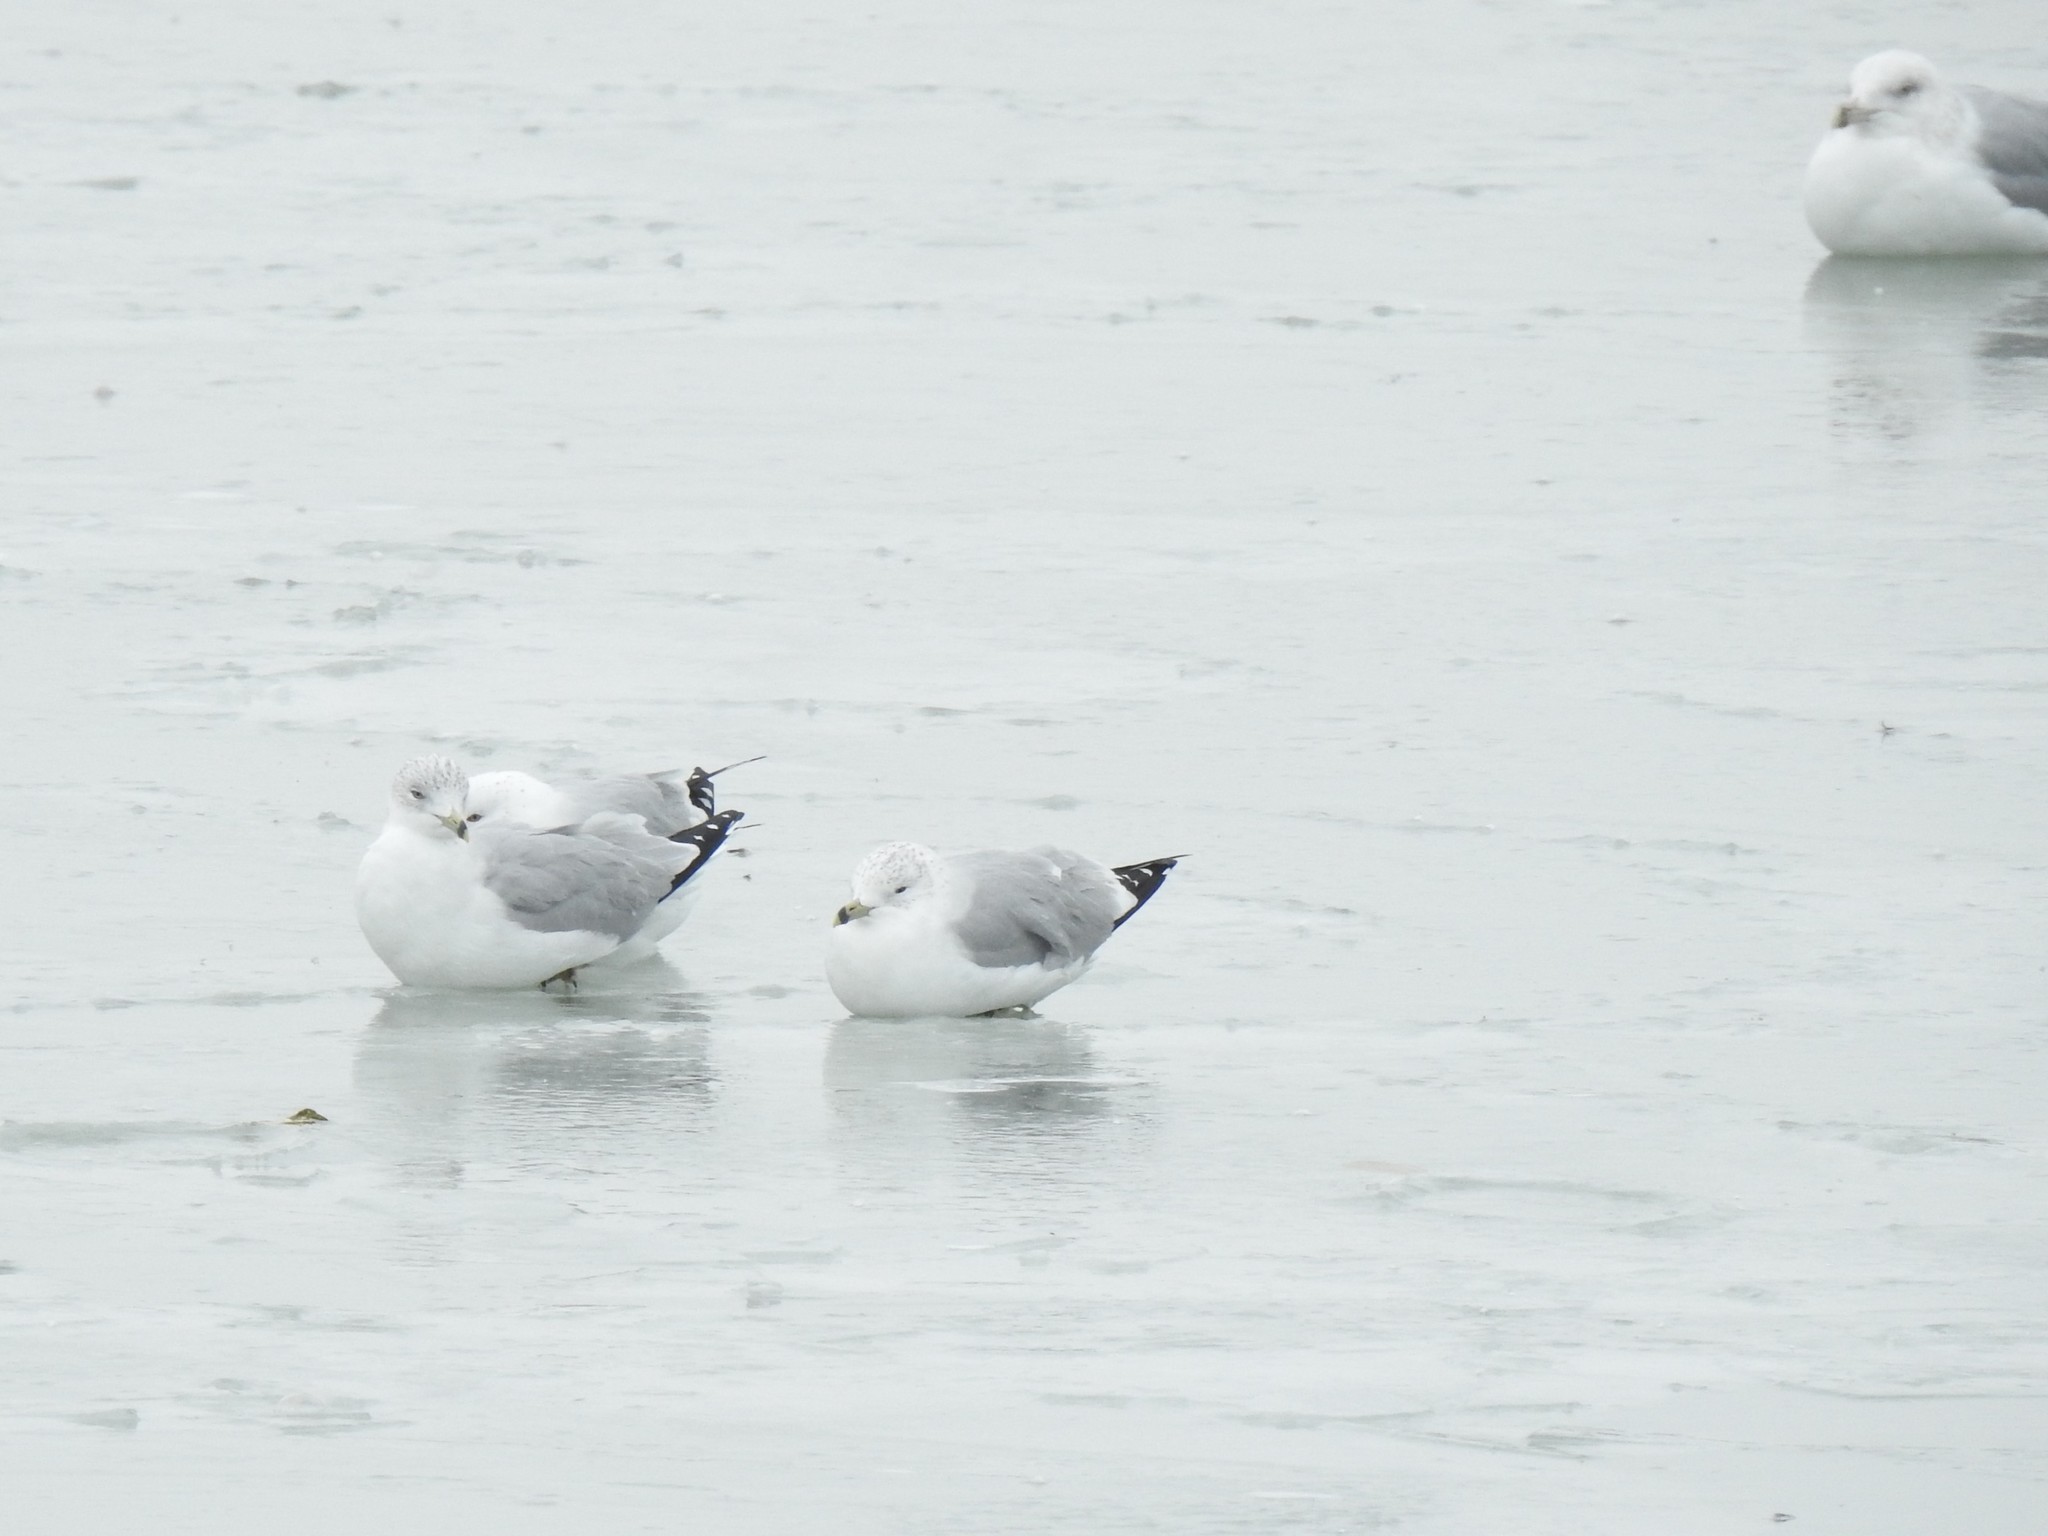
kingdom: Animalia
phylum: Chordata
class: Aves
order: Charadriiformes
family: Laridae
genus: Larus
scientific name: Larus delawarensis
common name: Ring-billed gull
